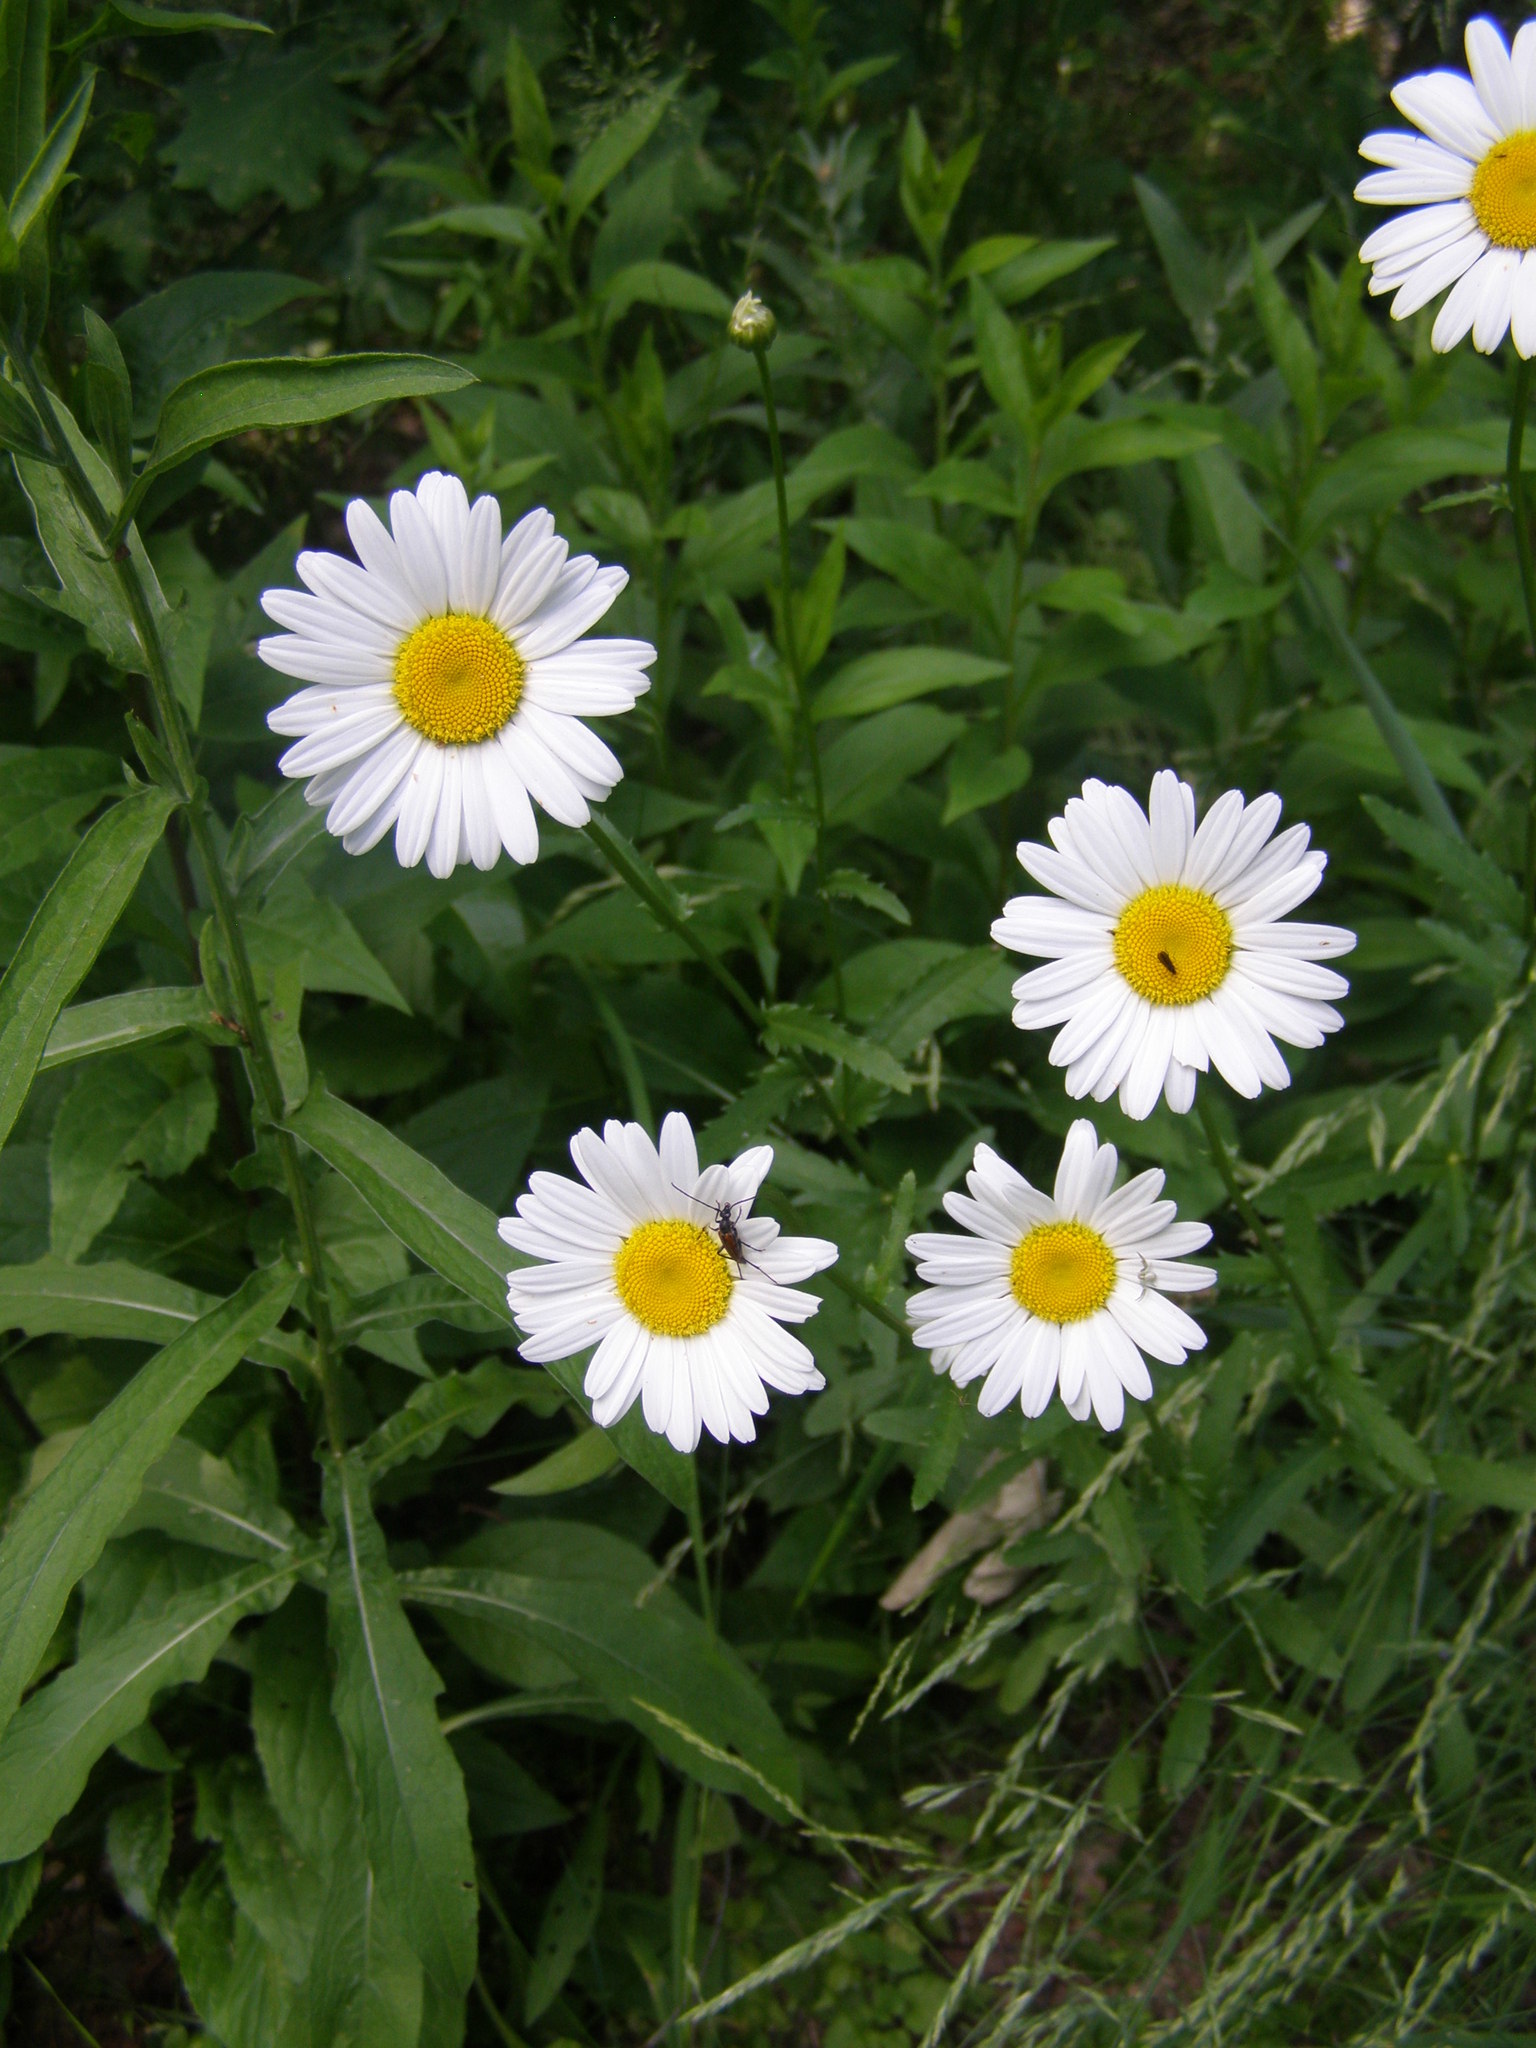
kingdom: Plantae
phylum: Tracheophyta
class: Magnoliopsida
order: Asterales
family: Asteraceae
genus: Leucanthemum
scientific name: Leucanthemum vulgare
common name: Oxeye daisy
